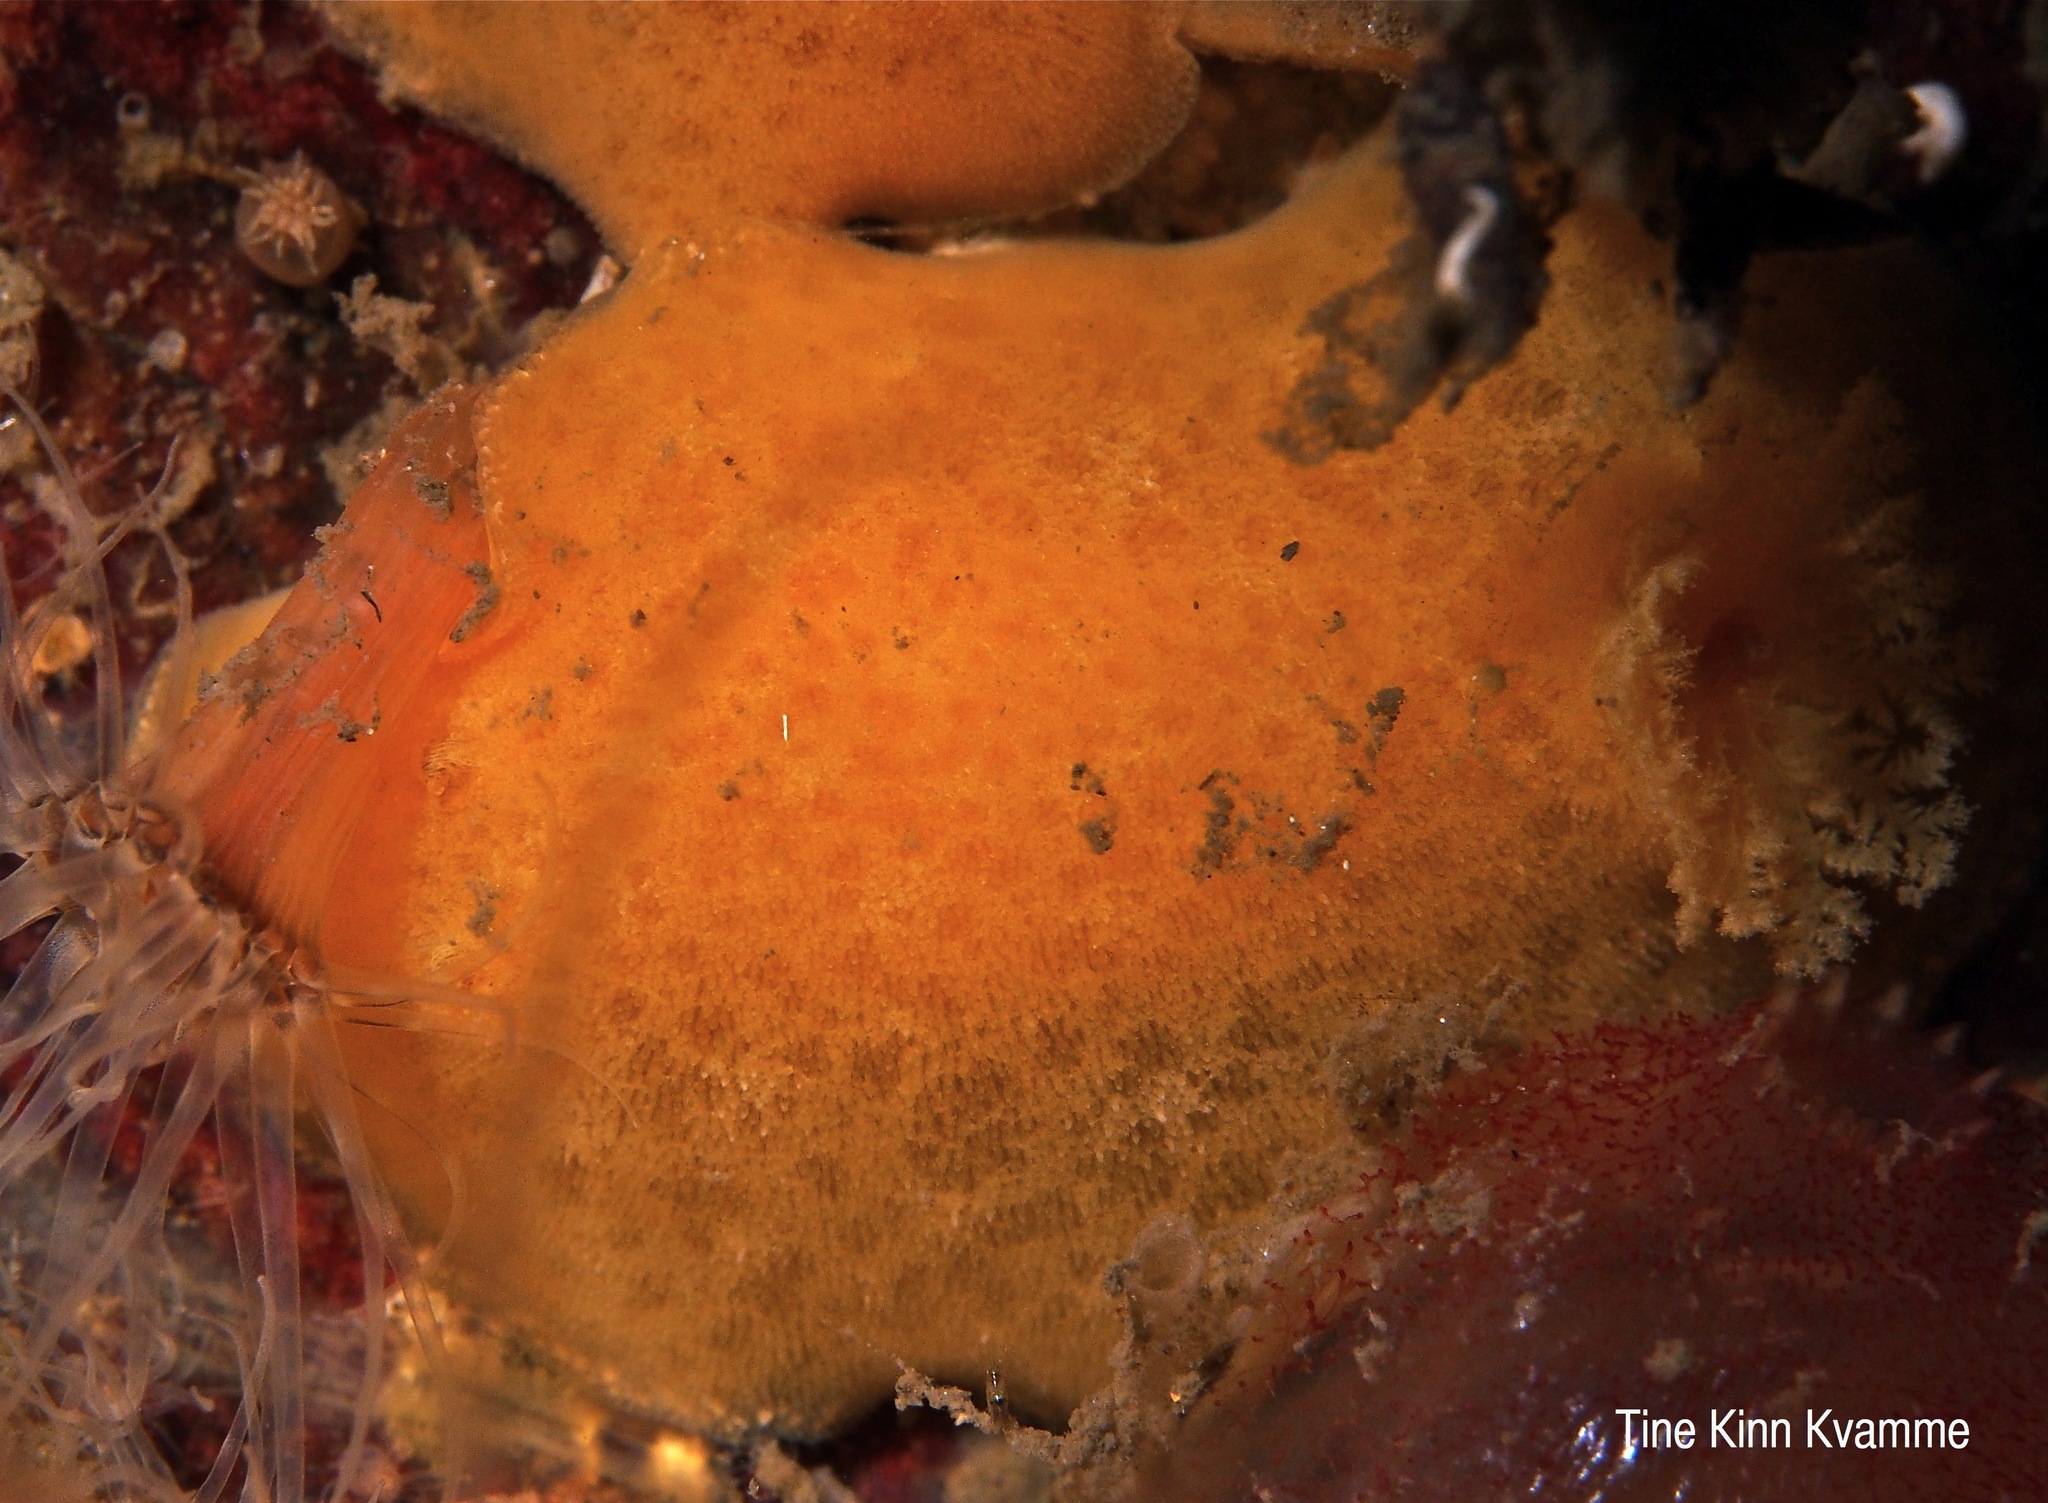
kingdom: Animalia
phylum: Mollusca
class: Gastropoda
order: Nudibranchia
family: Discodorididae
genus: Jorunna
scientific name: Jorunna tomentosa
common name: Grey sea slug
